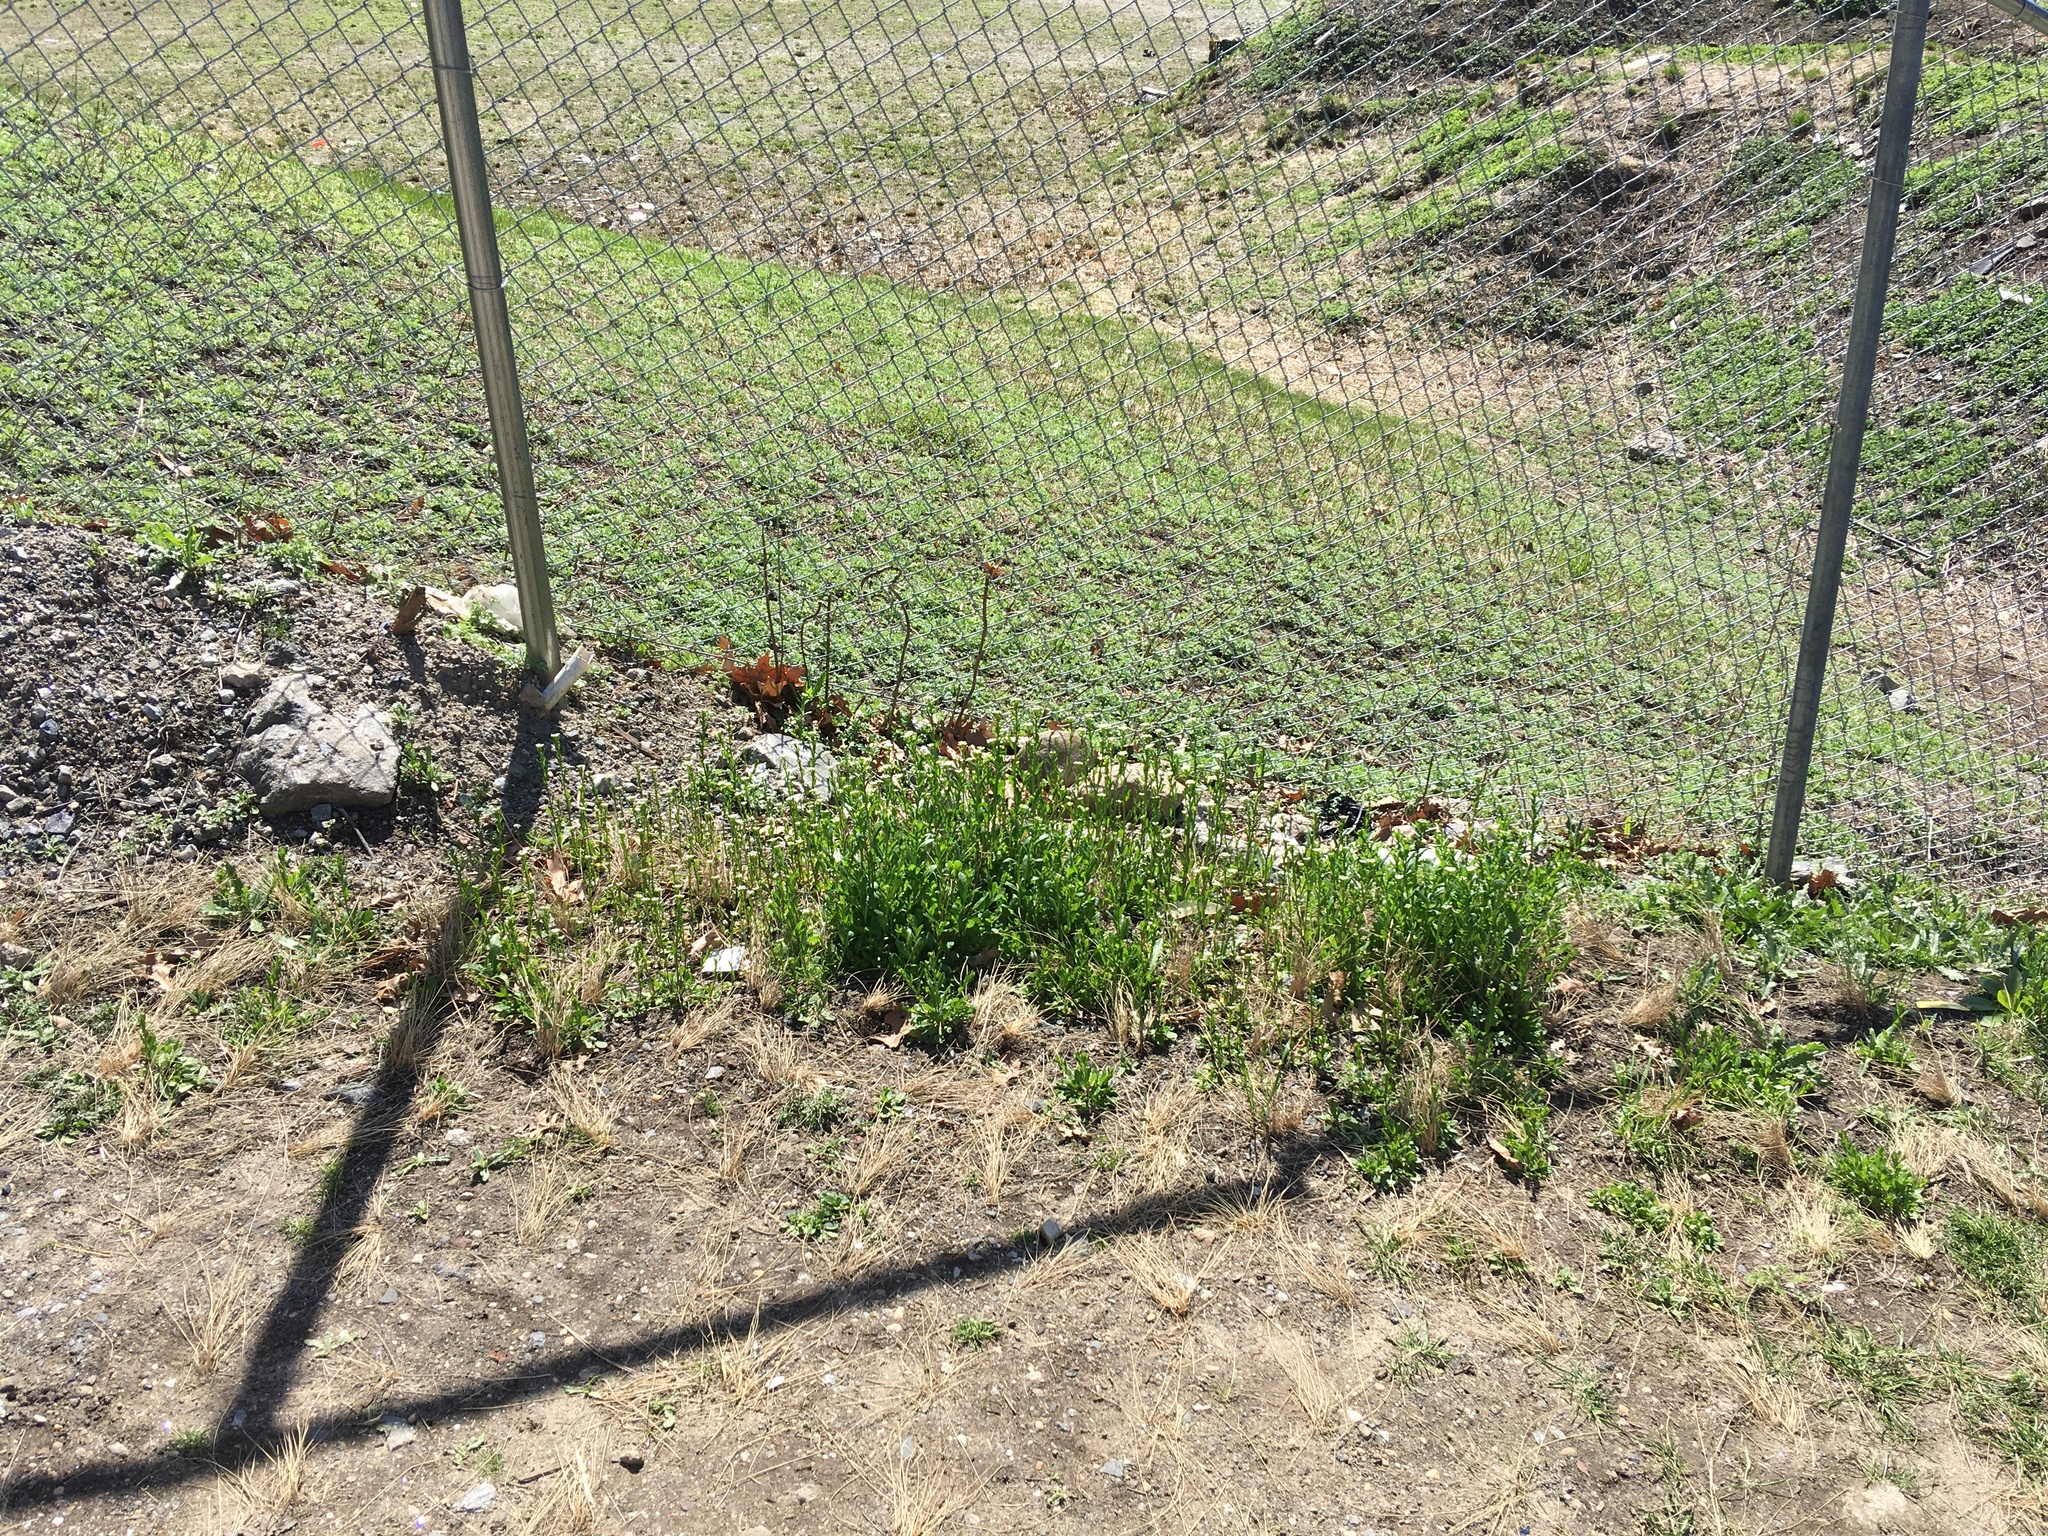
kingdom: Plantae
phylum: Tracheophyta
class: Magnoliopsida
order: Brassicales
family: Brassicaceae
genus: Mummenhoffia
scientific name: Mummenhoffia alliacea
